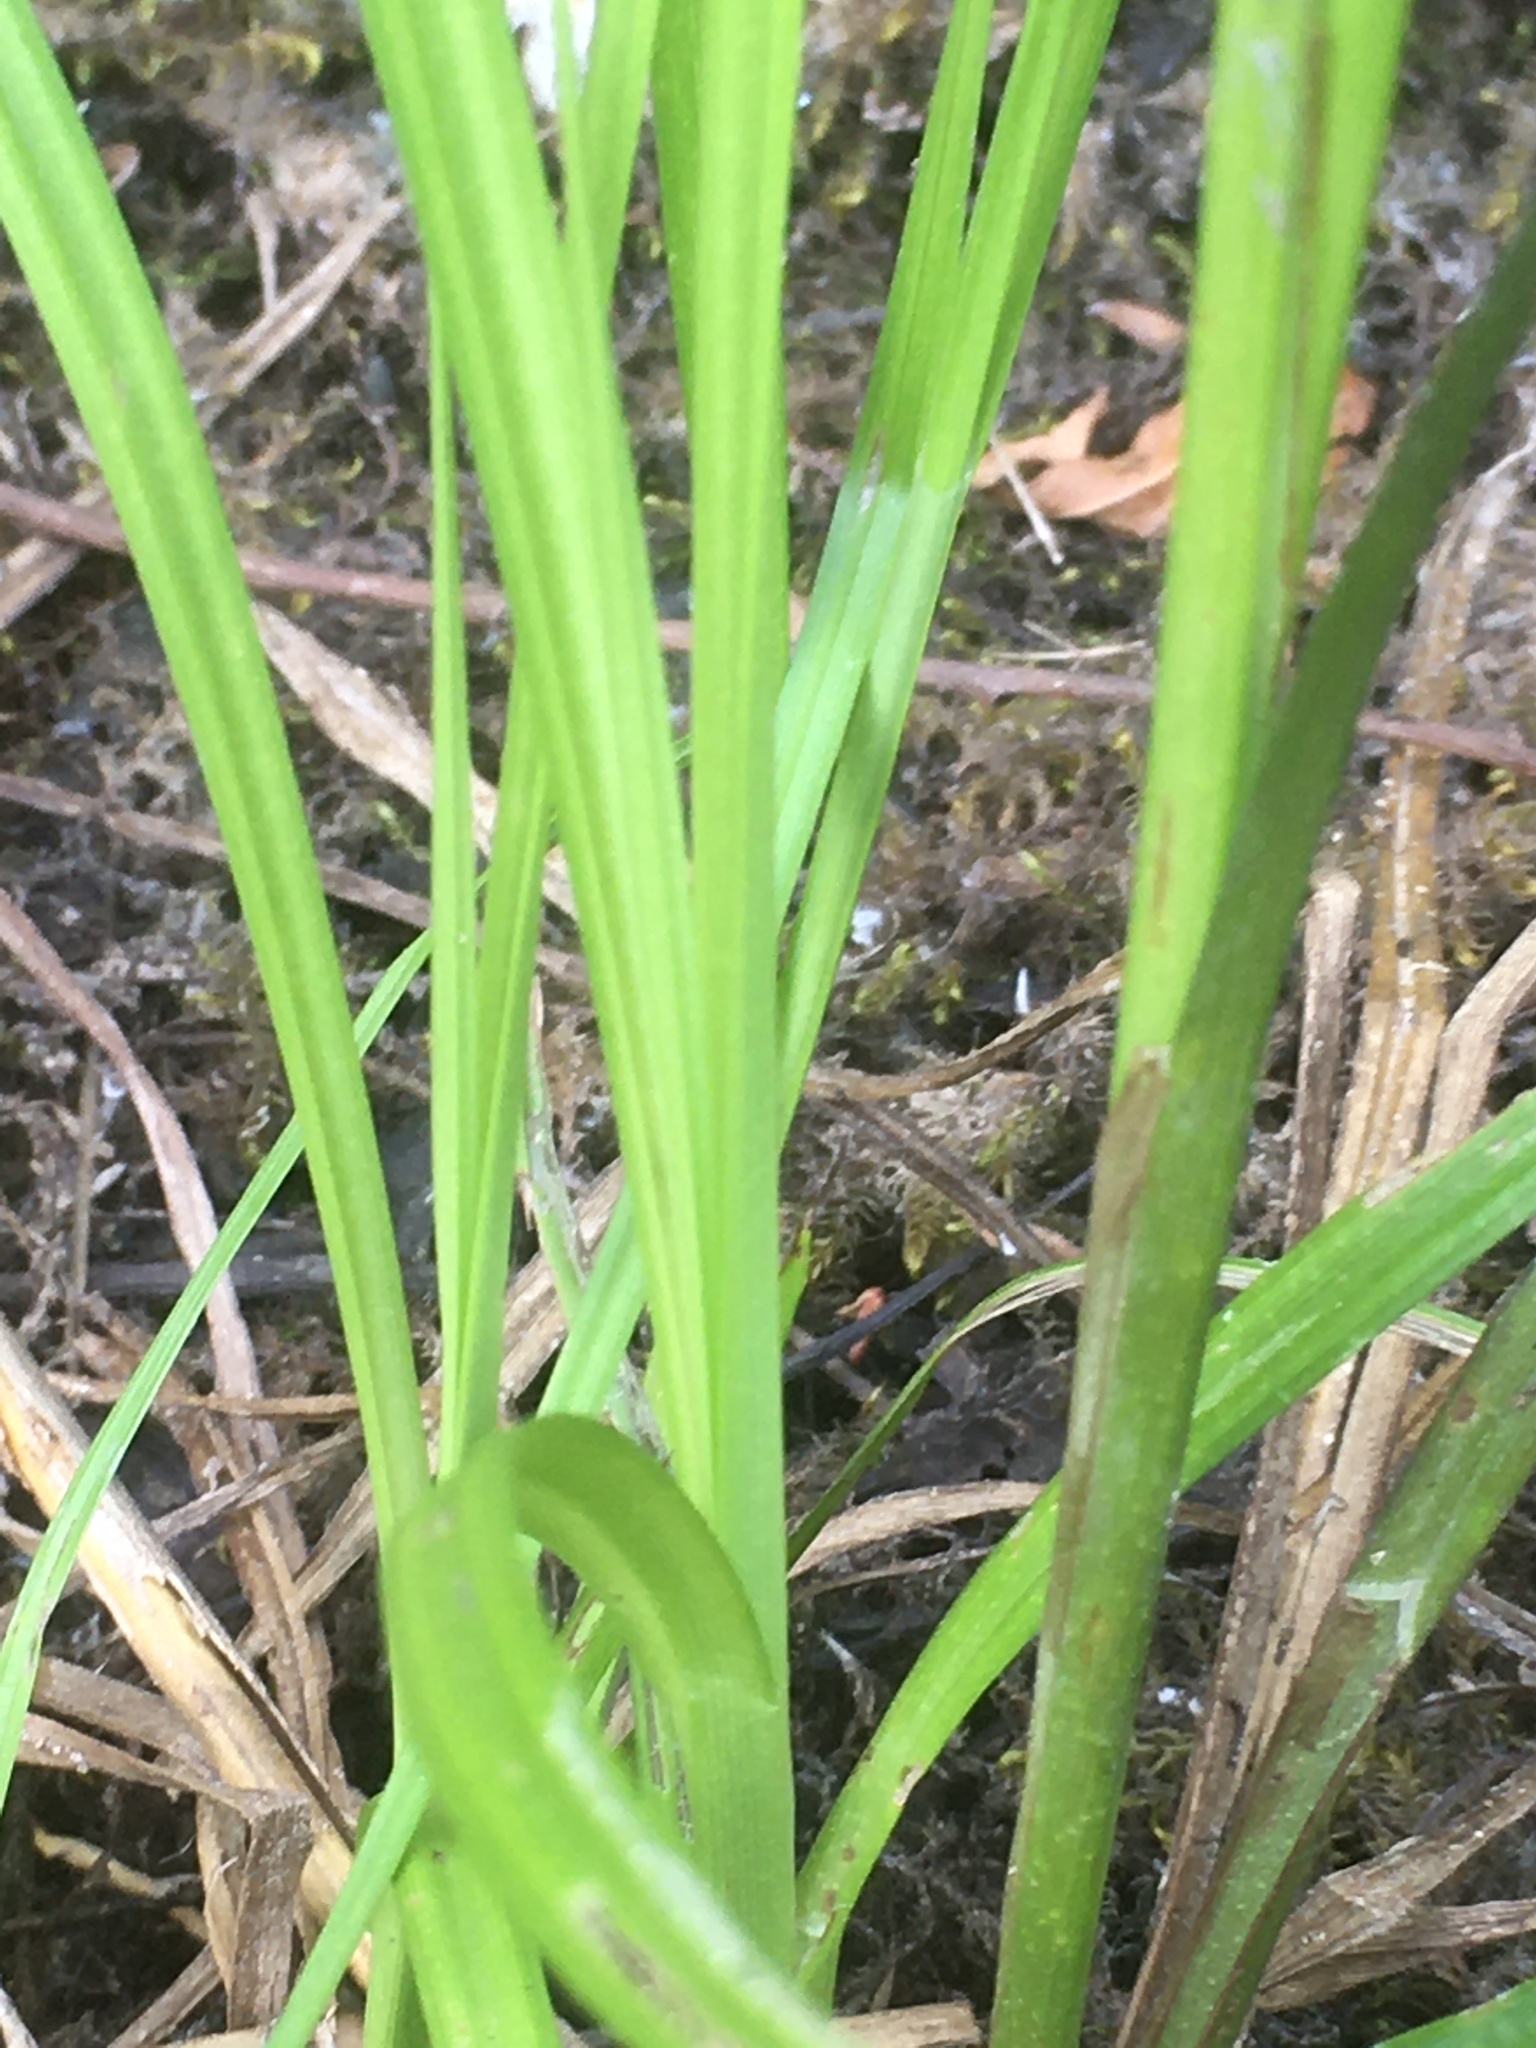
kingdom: Plantae
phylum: Tracheophyta
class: Liliopsida
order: Poales
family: Cyperaceae
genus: Carex
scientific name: Carex retrorsa
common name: Knot-sheath sedge
